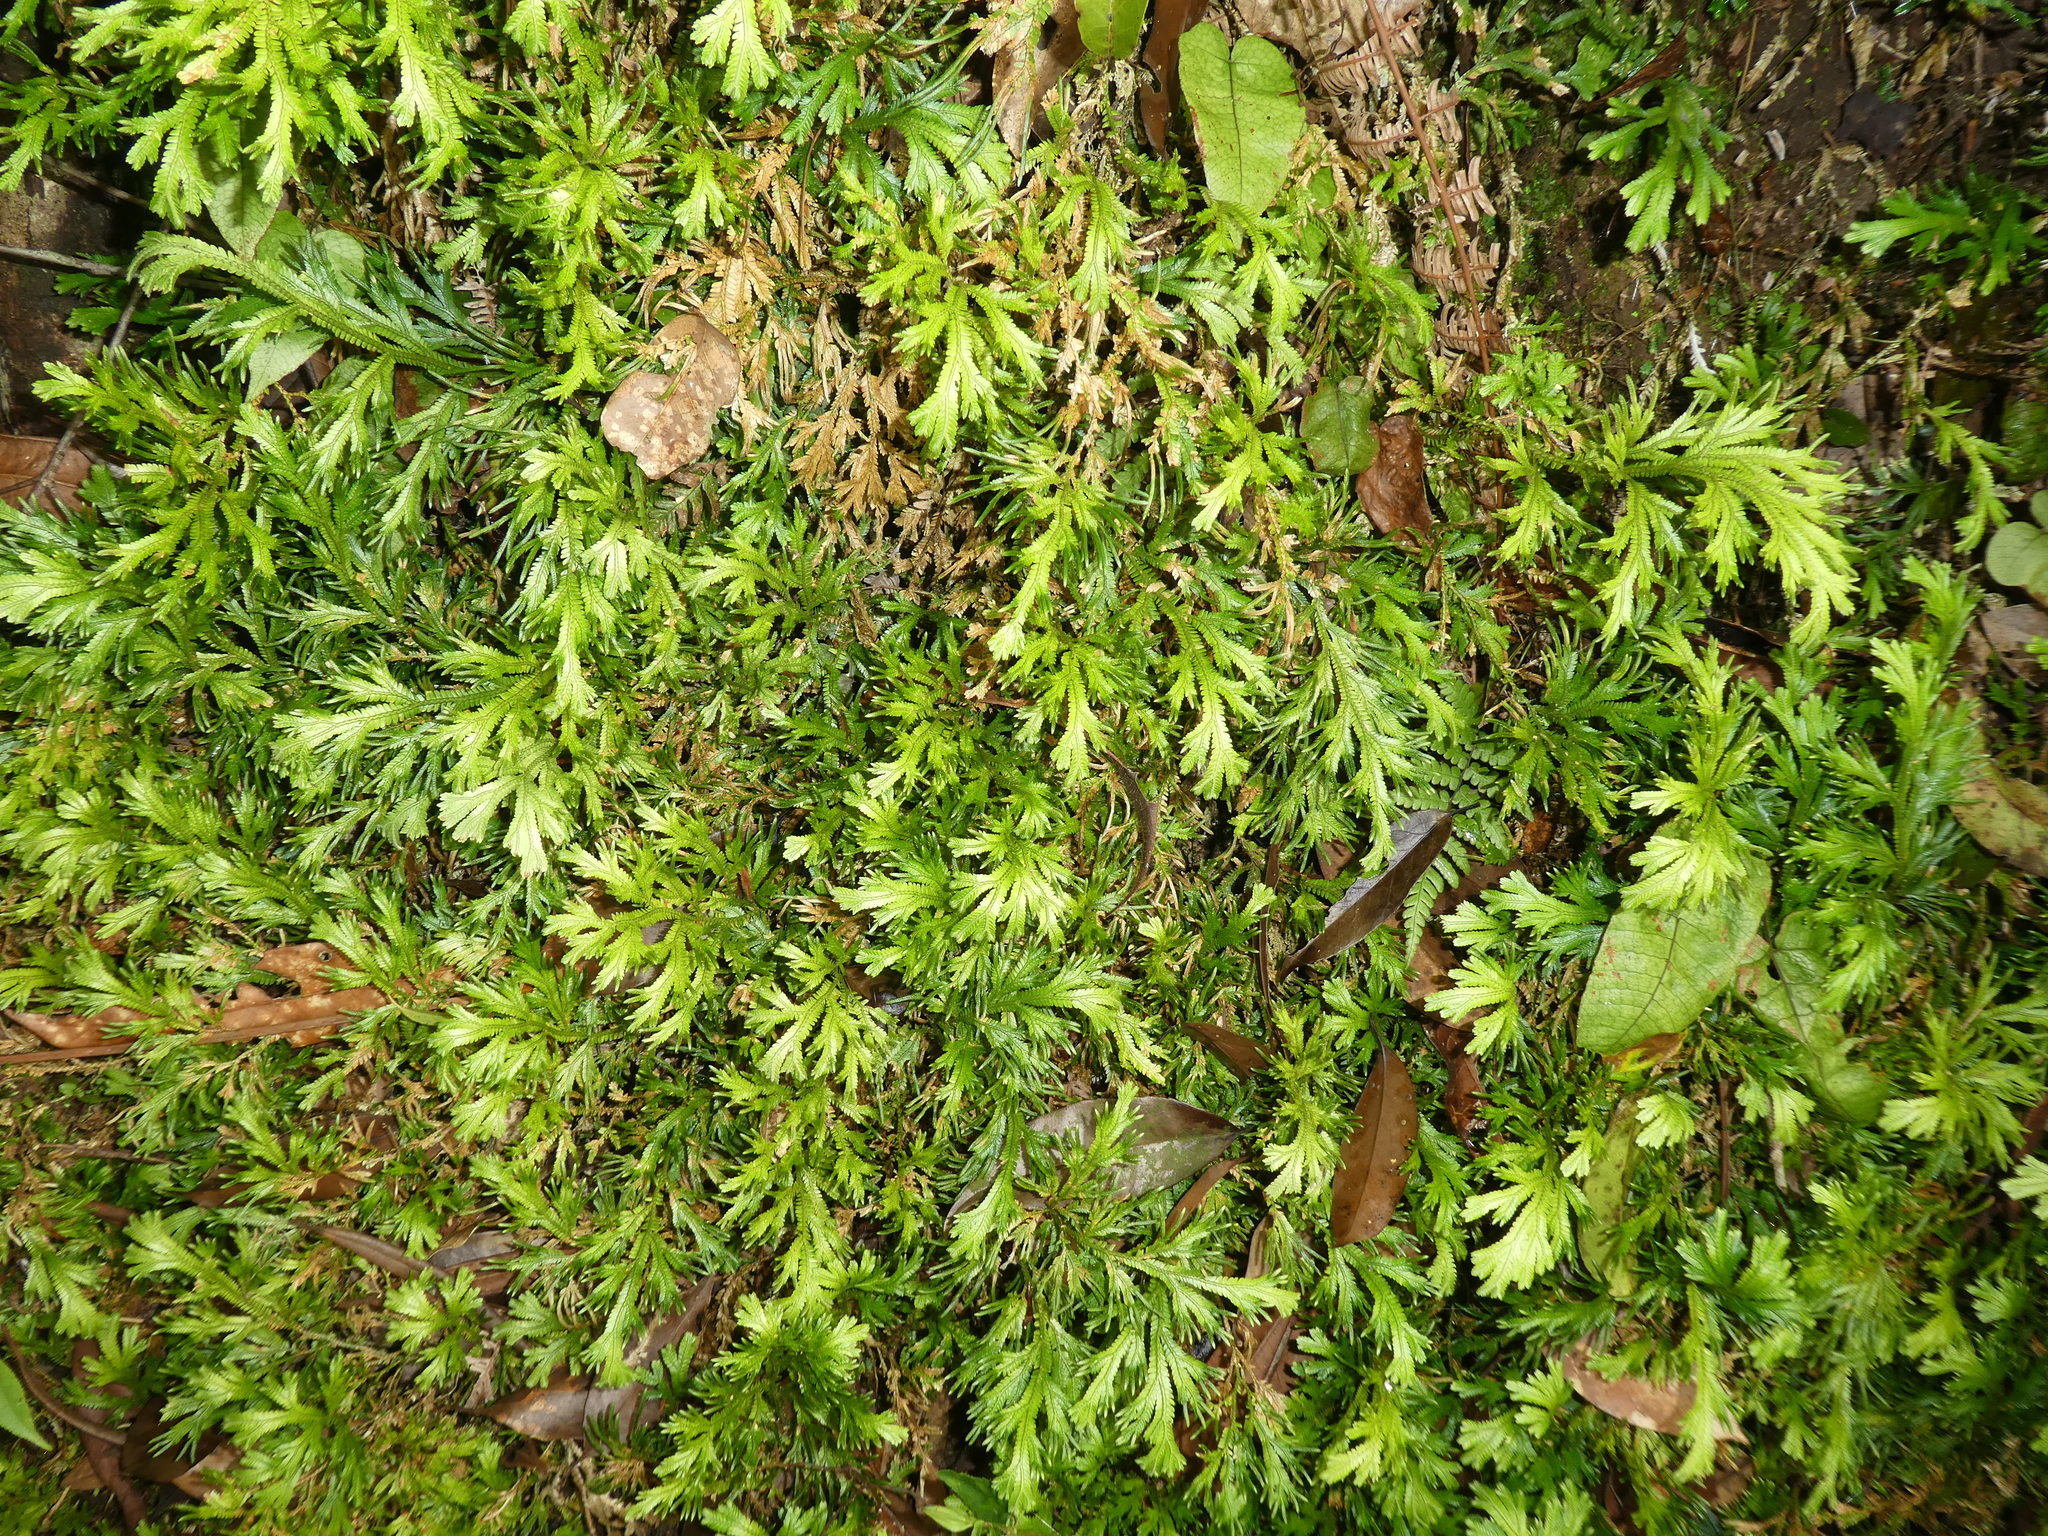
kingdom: Plantae
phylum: Tracheophyta
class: Lycopodiopsida
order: Selaginellales
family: Selaginellaceae
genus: Selaginella
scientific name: Selaginella doederleinii
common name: Greater selaginella
